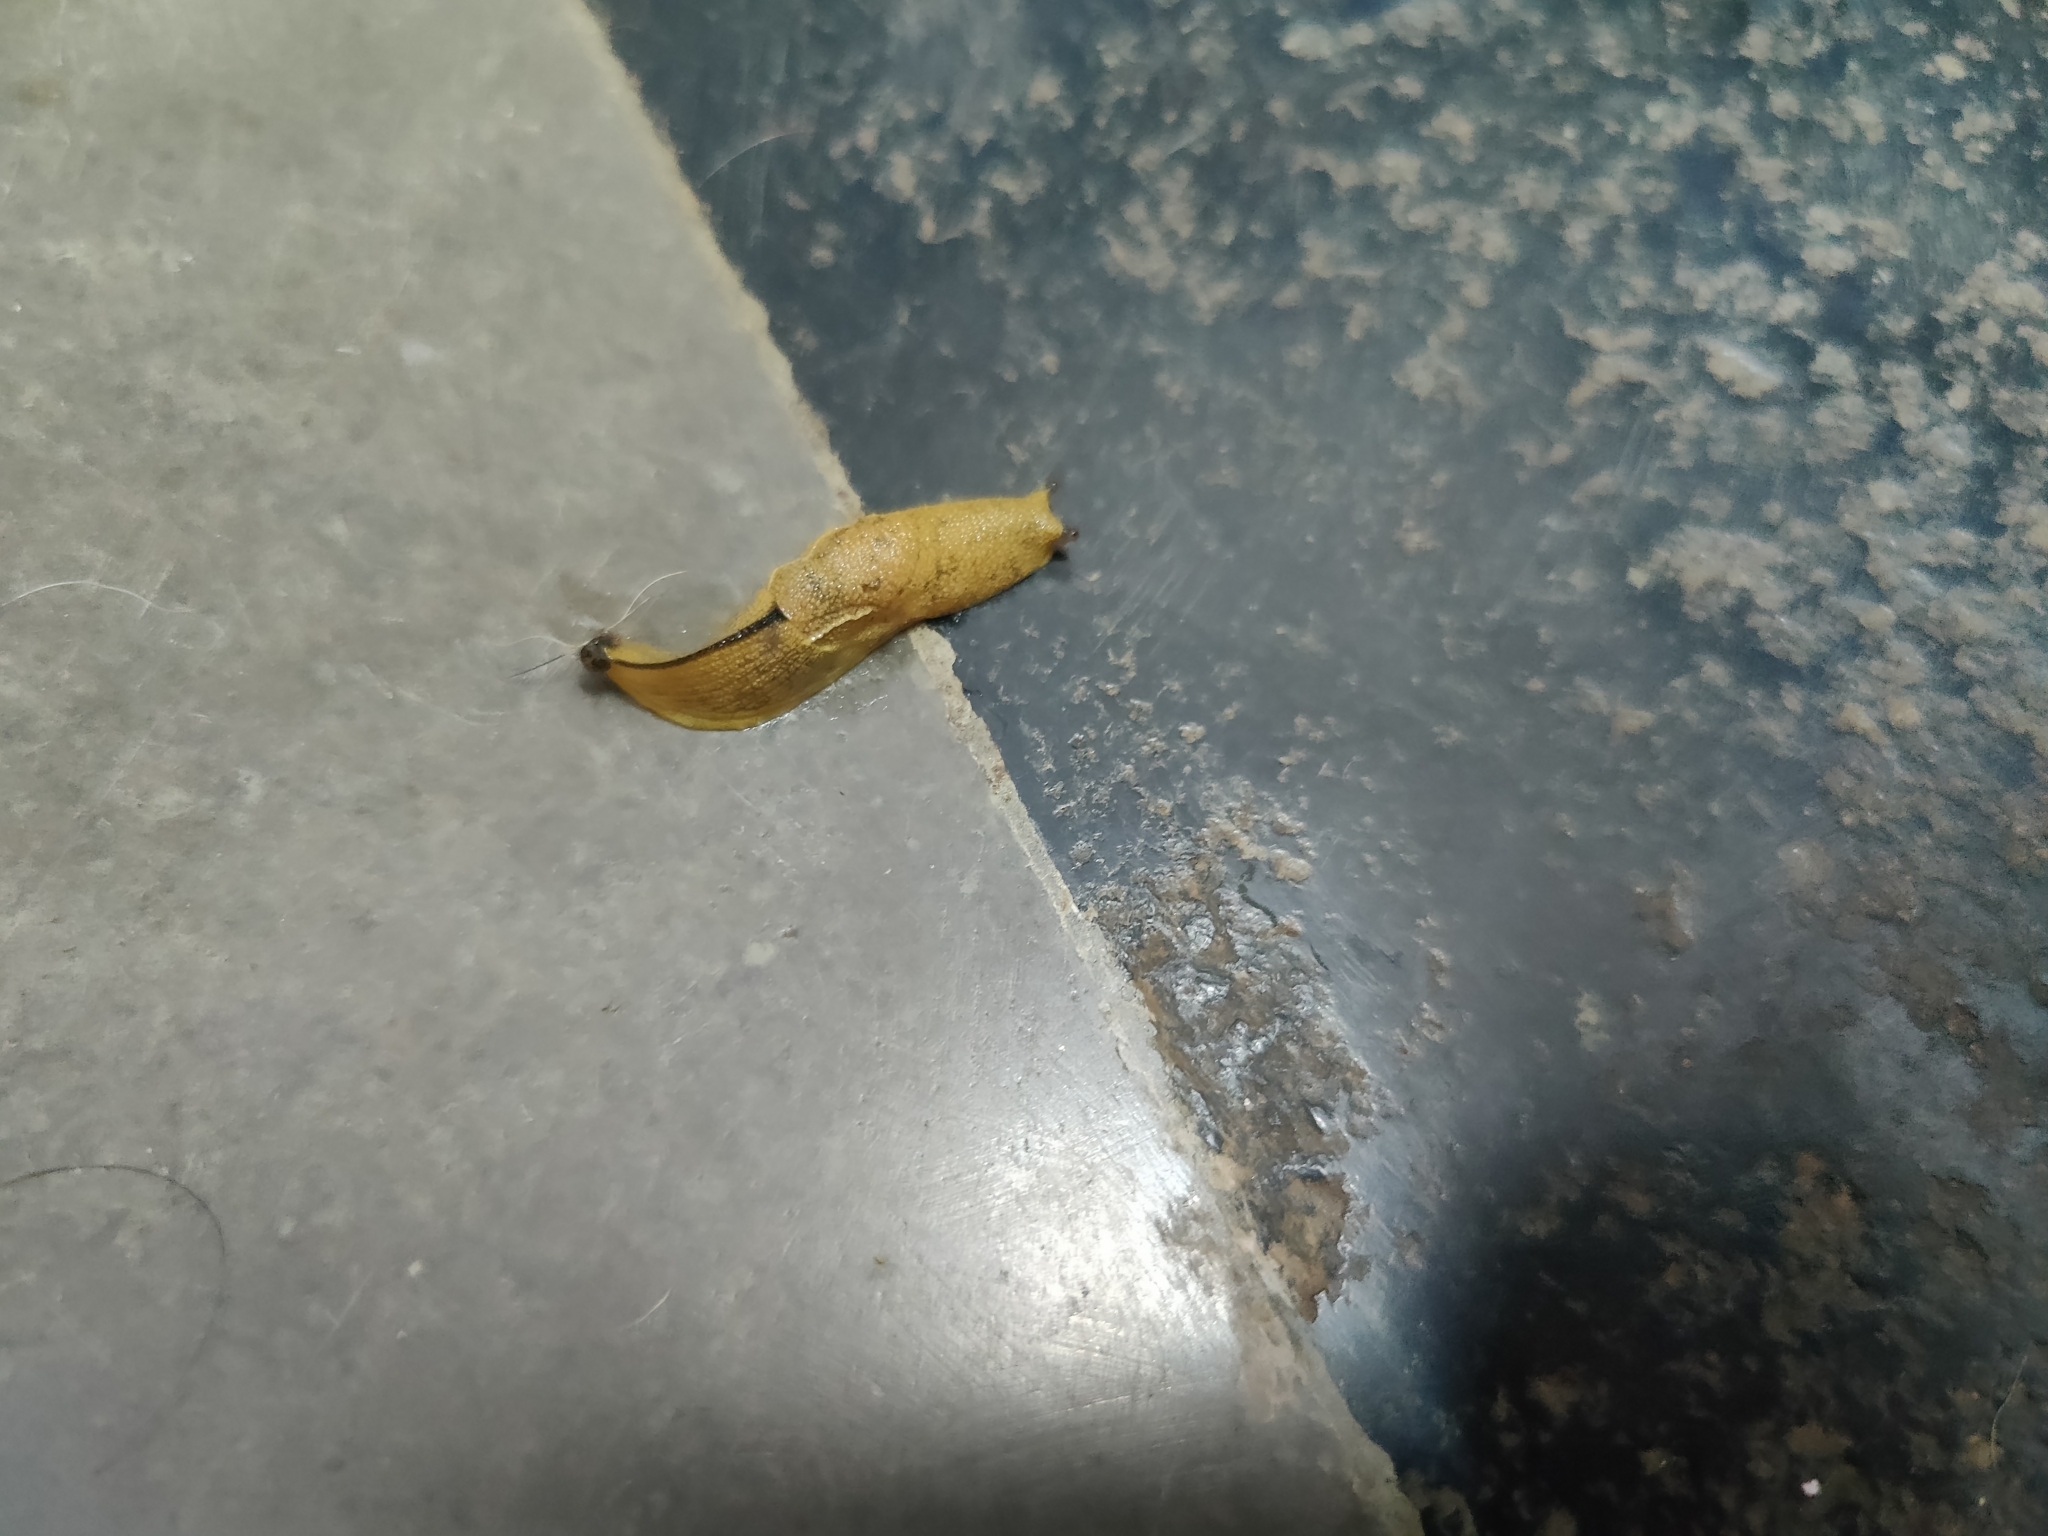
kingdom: Animalia
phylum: Mollusca
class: Gastropoda
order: Stylommatophora
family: Ariophantidae
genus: Mariaella
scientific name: Mariaella dussumieri
